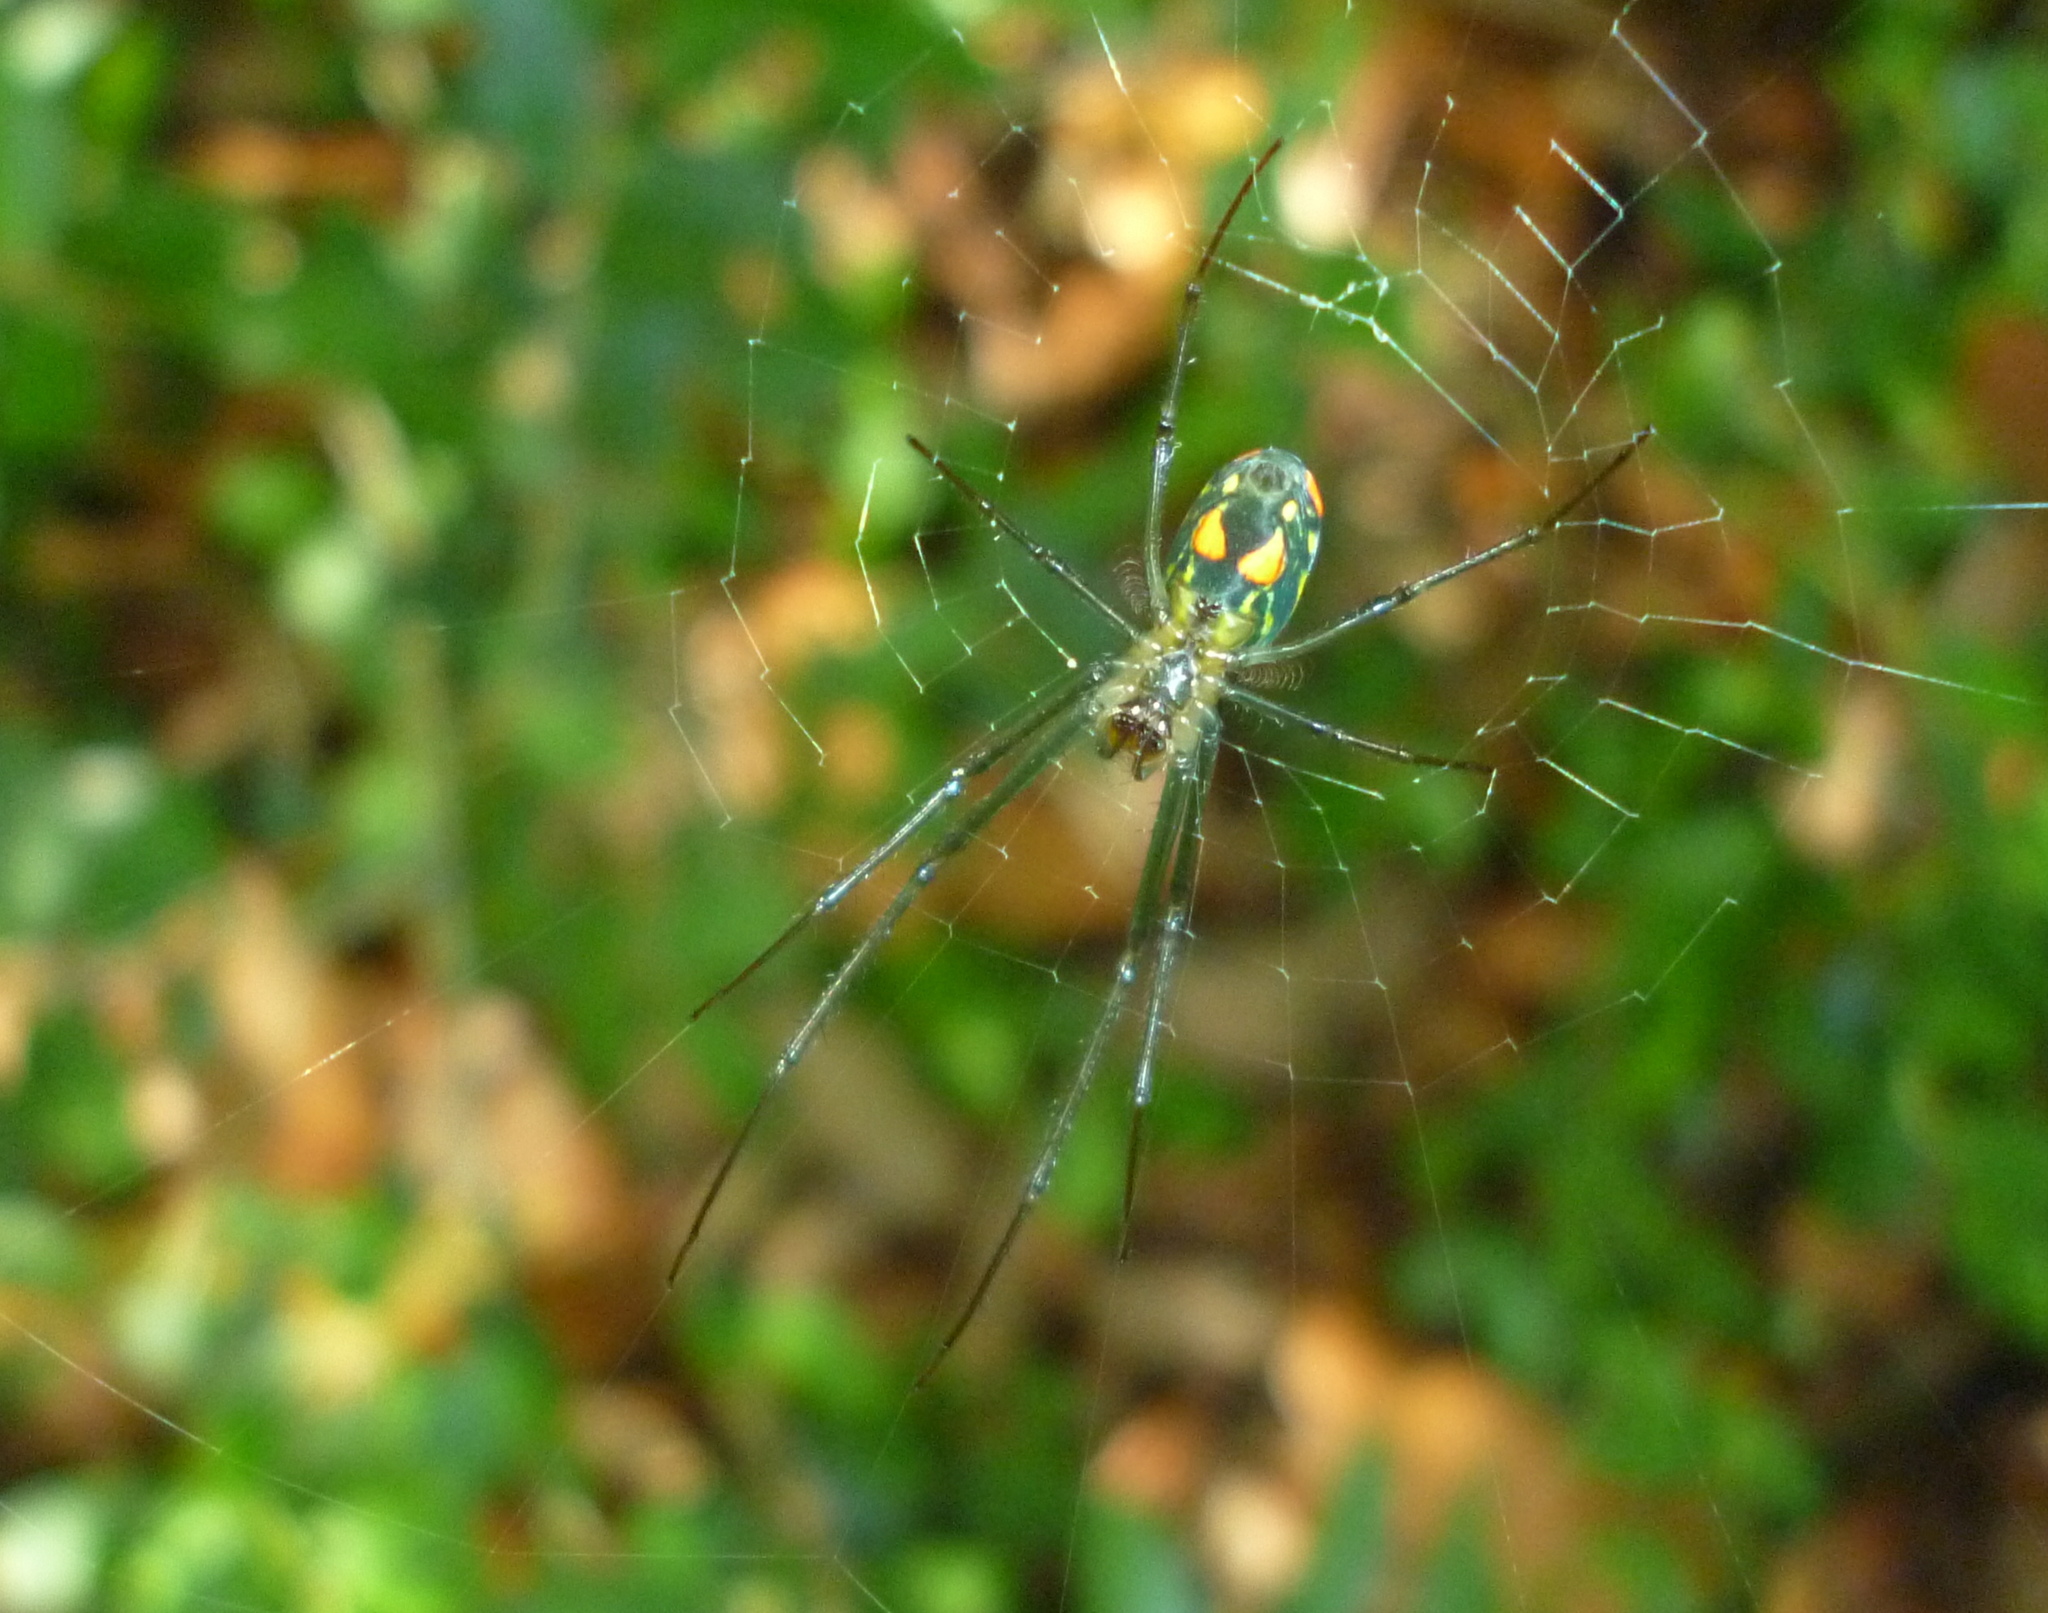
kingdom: Animalia
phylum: Arthropoda
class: Arachnida
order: Araneae
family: Tetragnathidae
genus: Leucauge
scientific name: Leucauge argyrobapta
